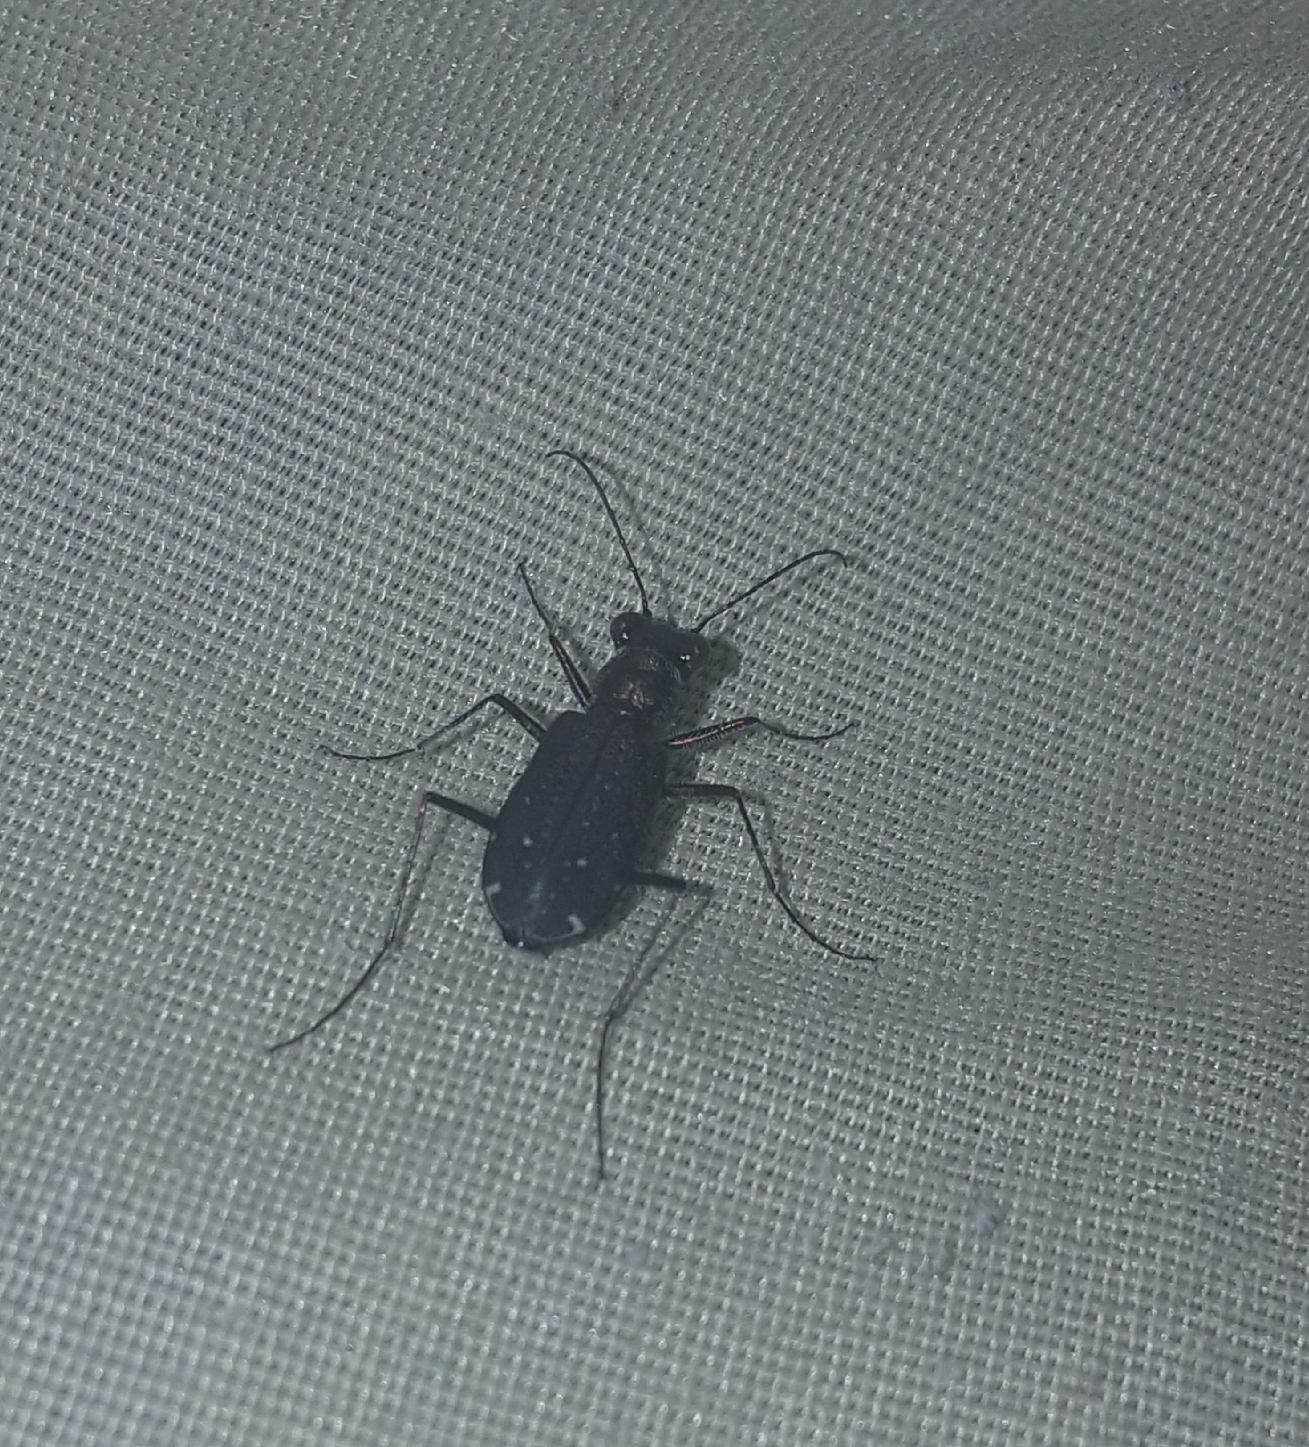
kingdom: Animalia
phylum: Arthropoda
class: Insecta
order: Coleoptera
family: Carabidae
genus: Cicindela
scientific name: Cicindela punctulata
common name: Punctured tiger beetle
